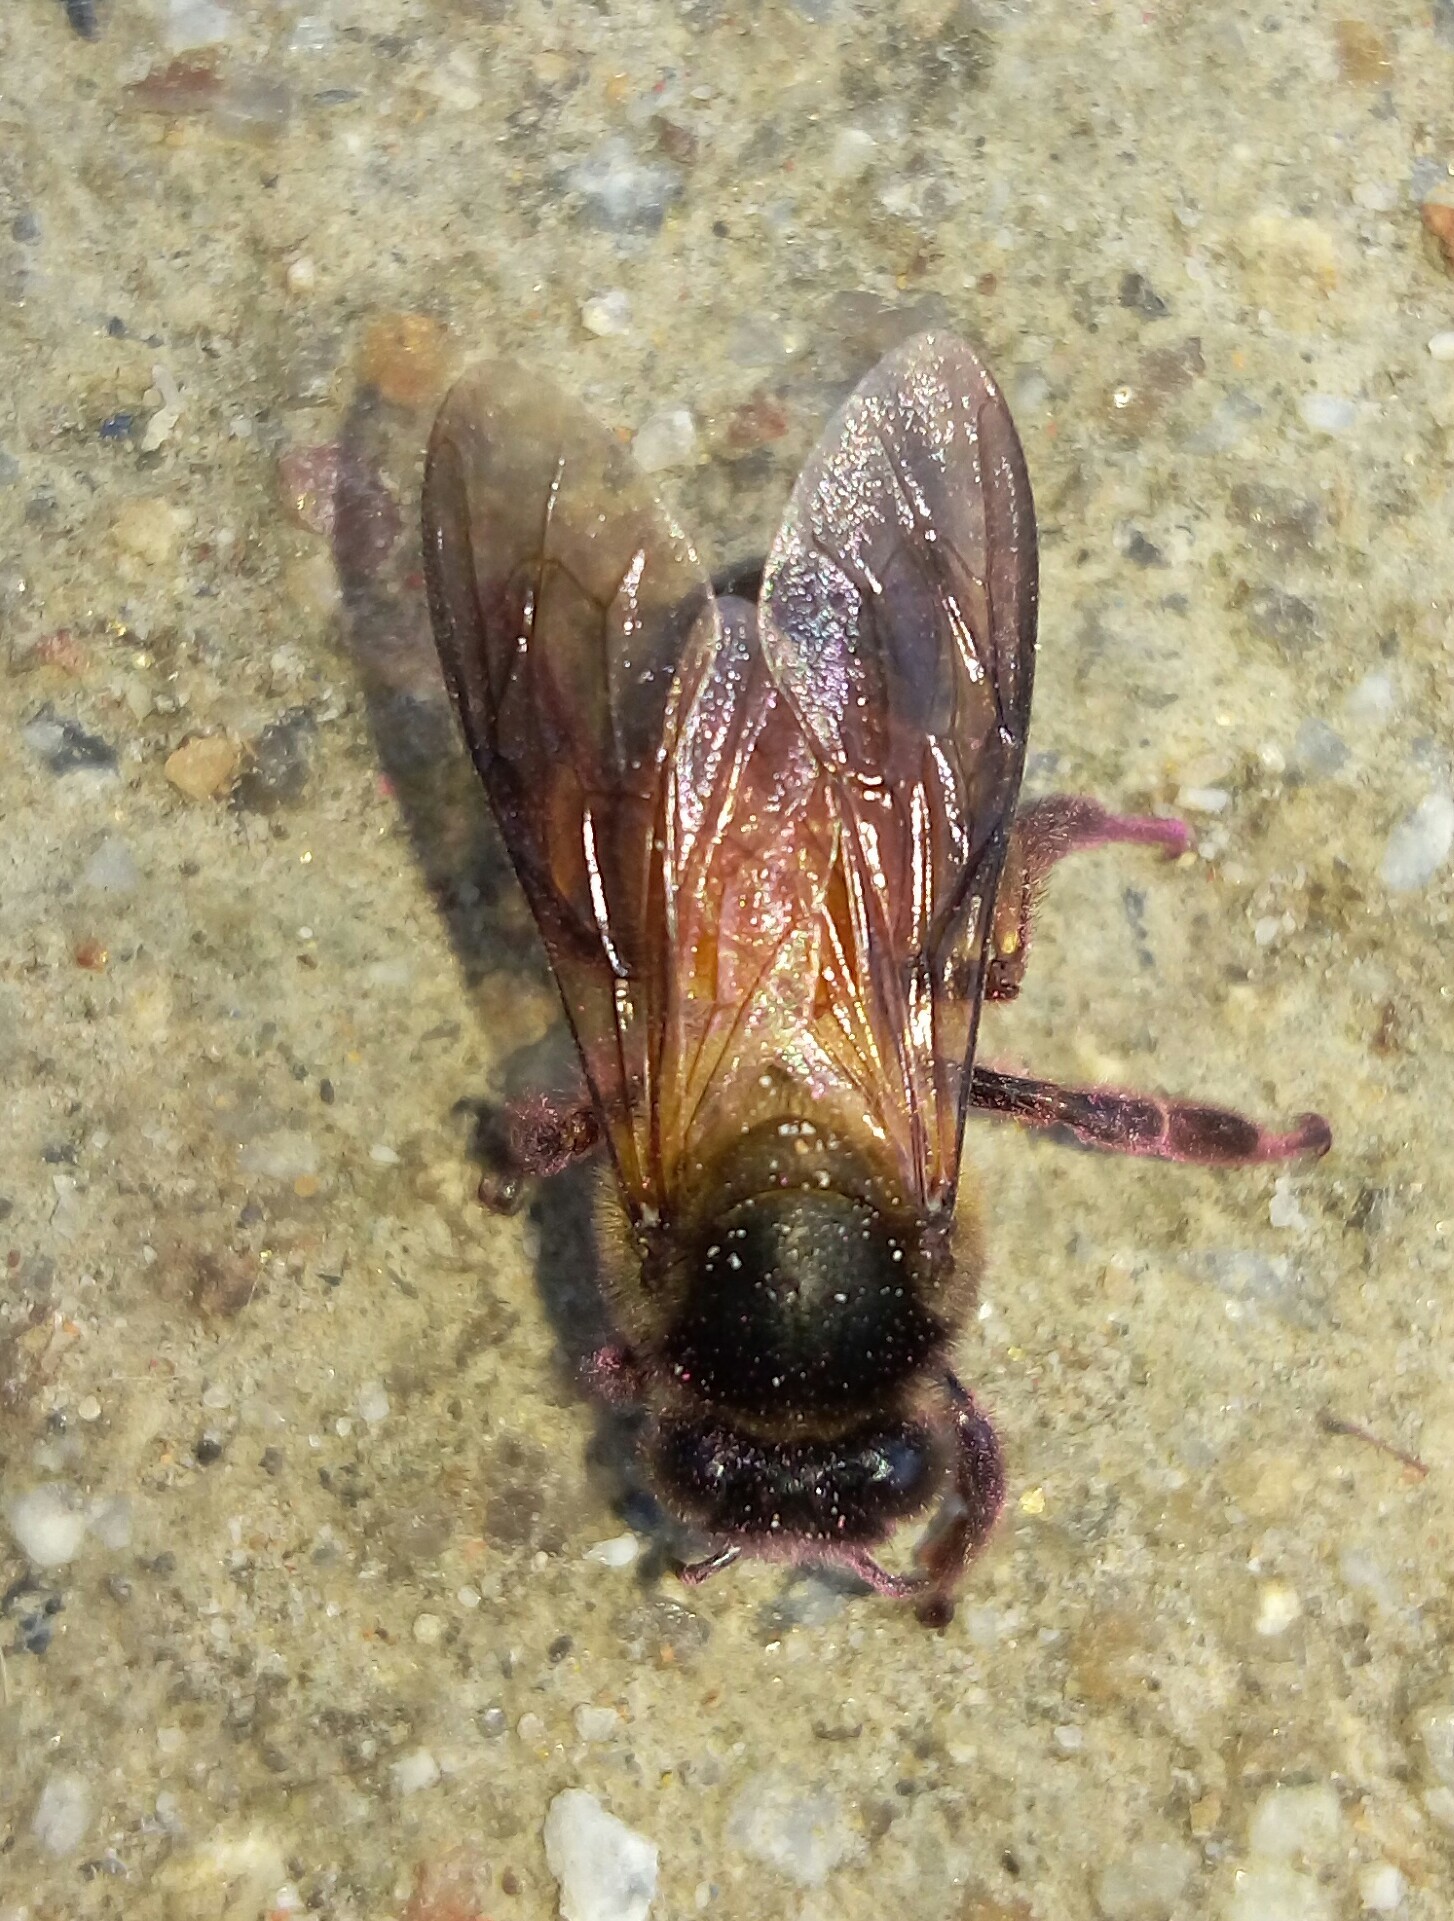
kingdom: Animalia
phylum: Arthropoda
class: Insecta
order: Hymenoptera
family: Apidae
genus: Apis
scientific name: Apis dorsata
